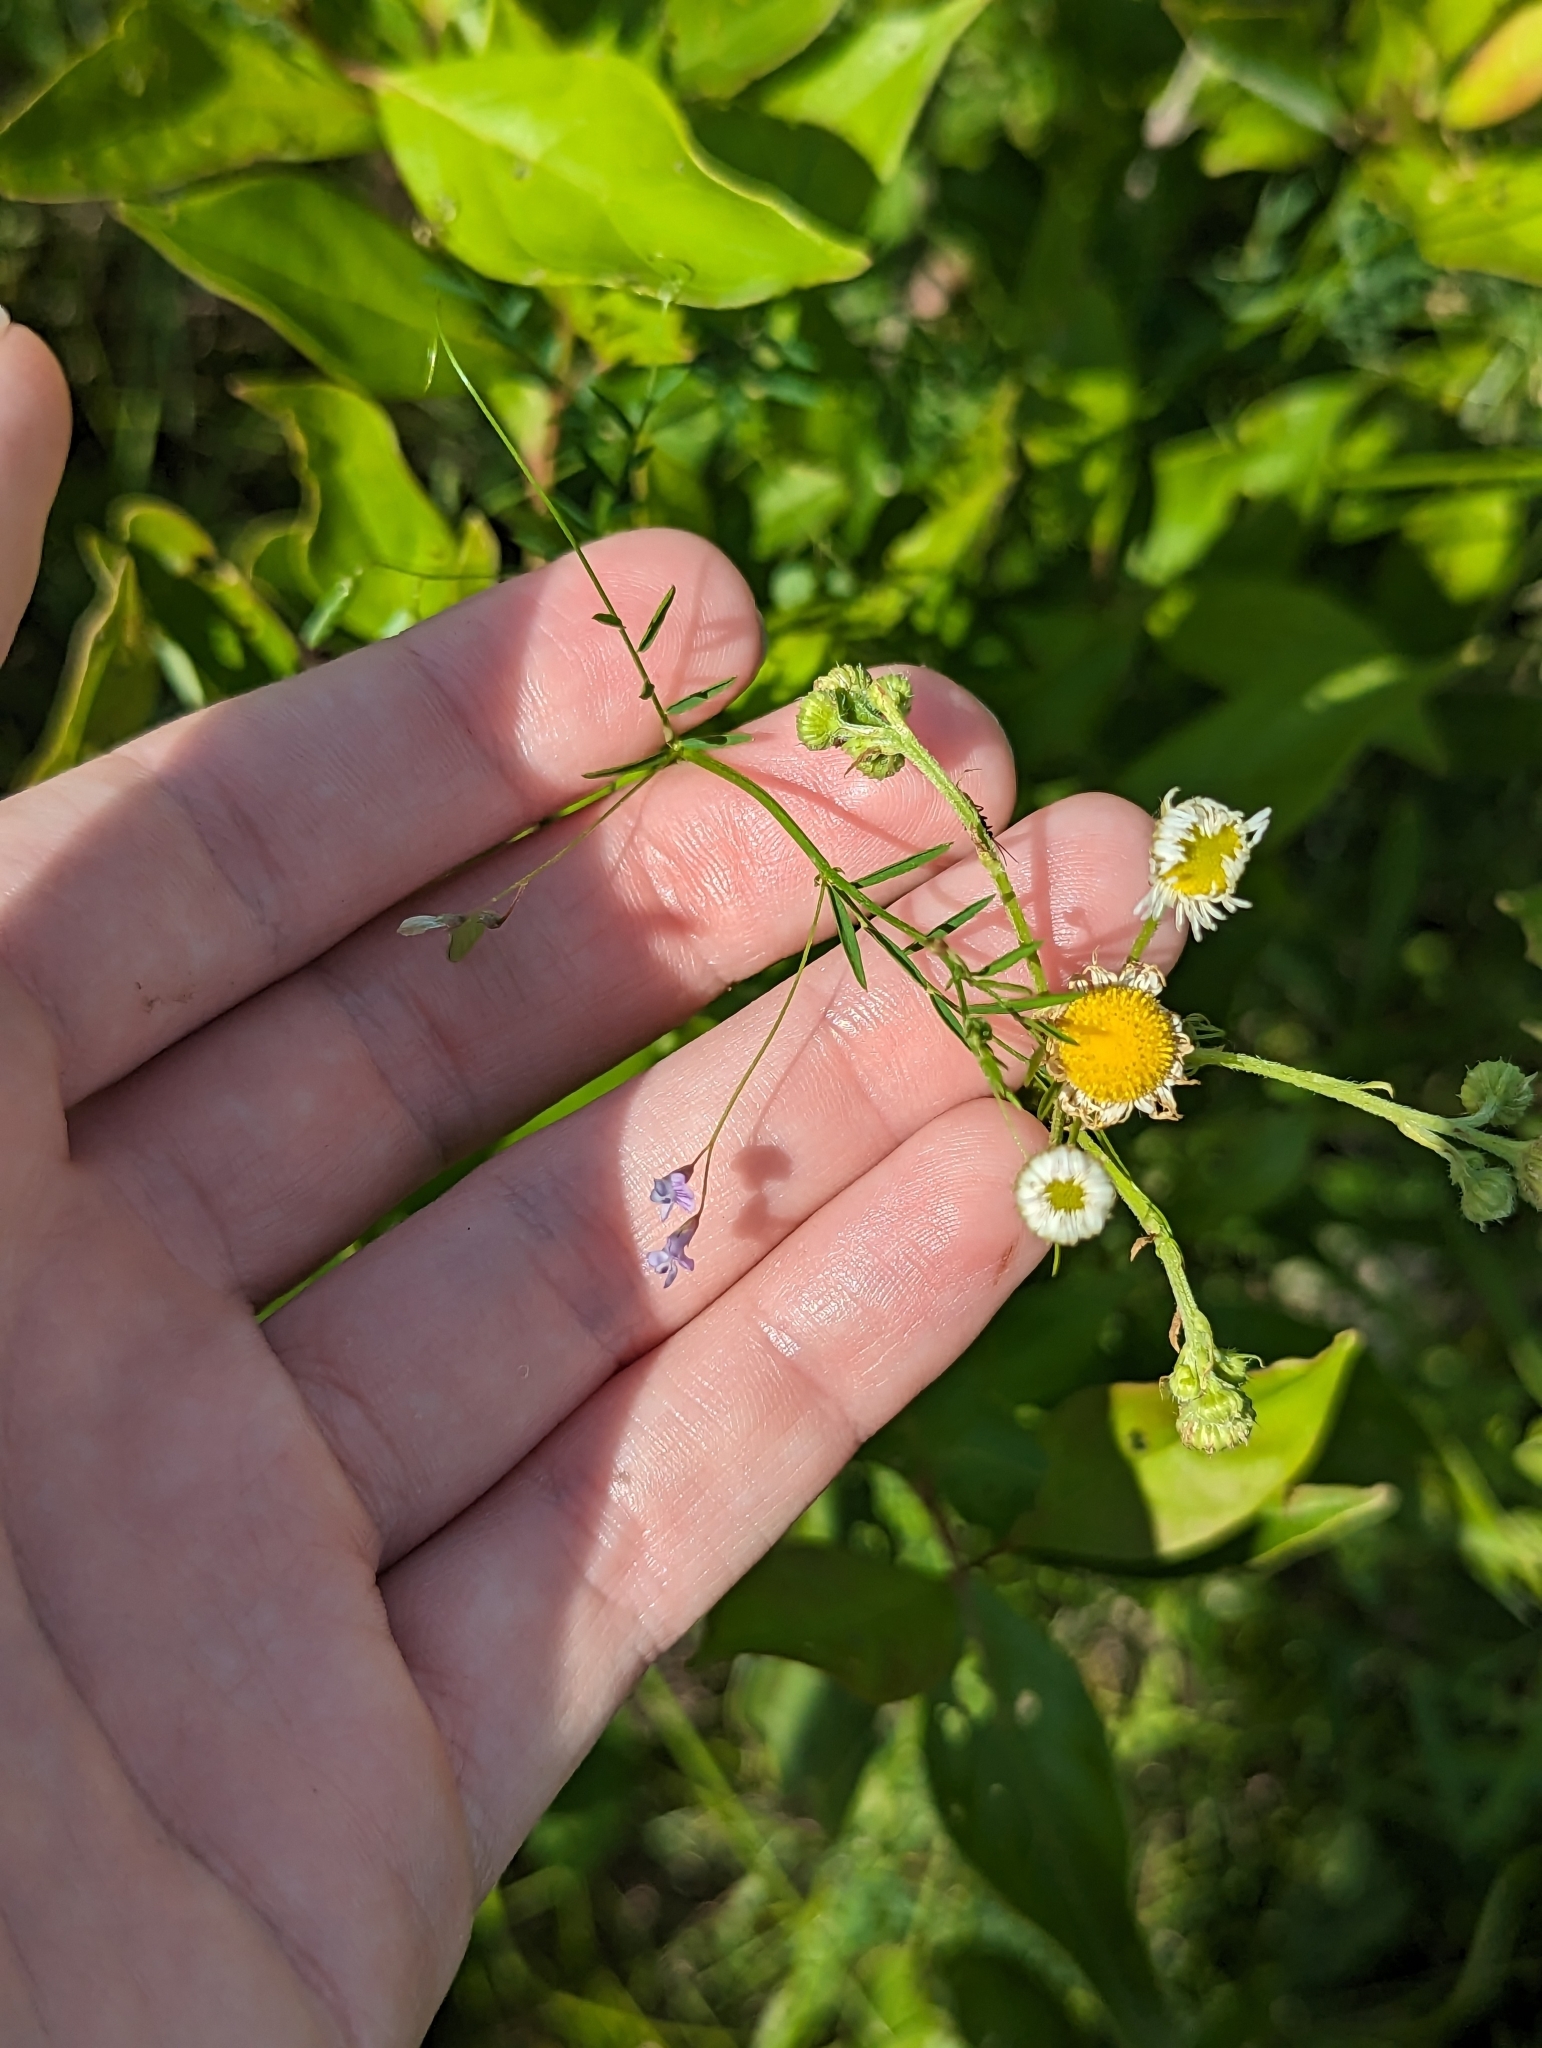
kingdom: Plantae
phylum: Tracheophyta
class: Magnoliopsida
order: Fabales
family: Fabaceae
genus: Vicia
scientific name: Vicia tetrasperma
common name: Smooth tare
